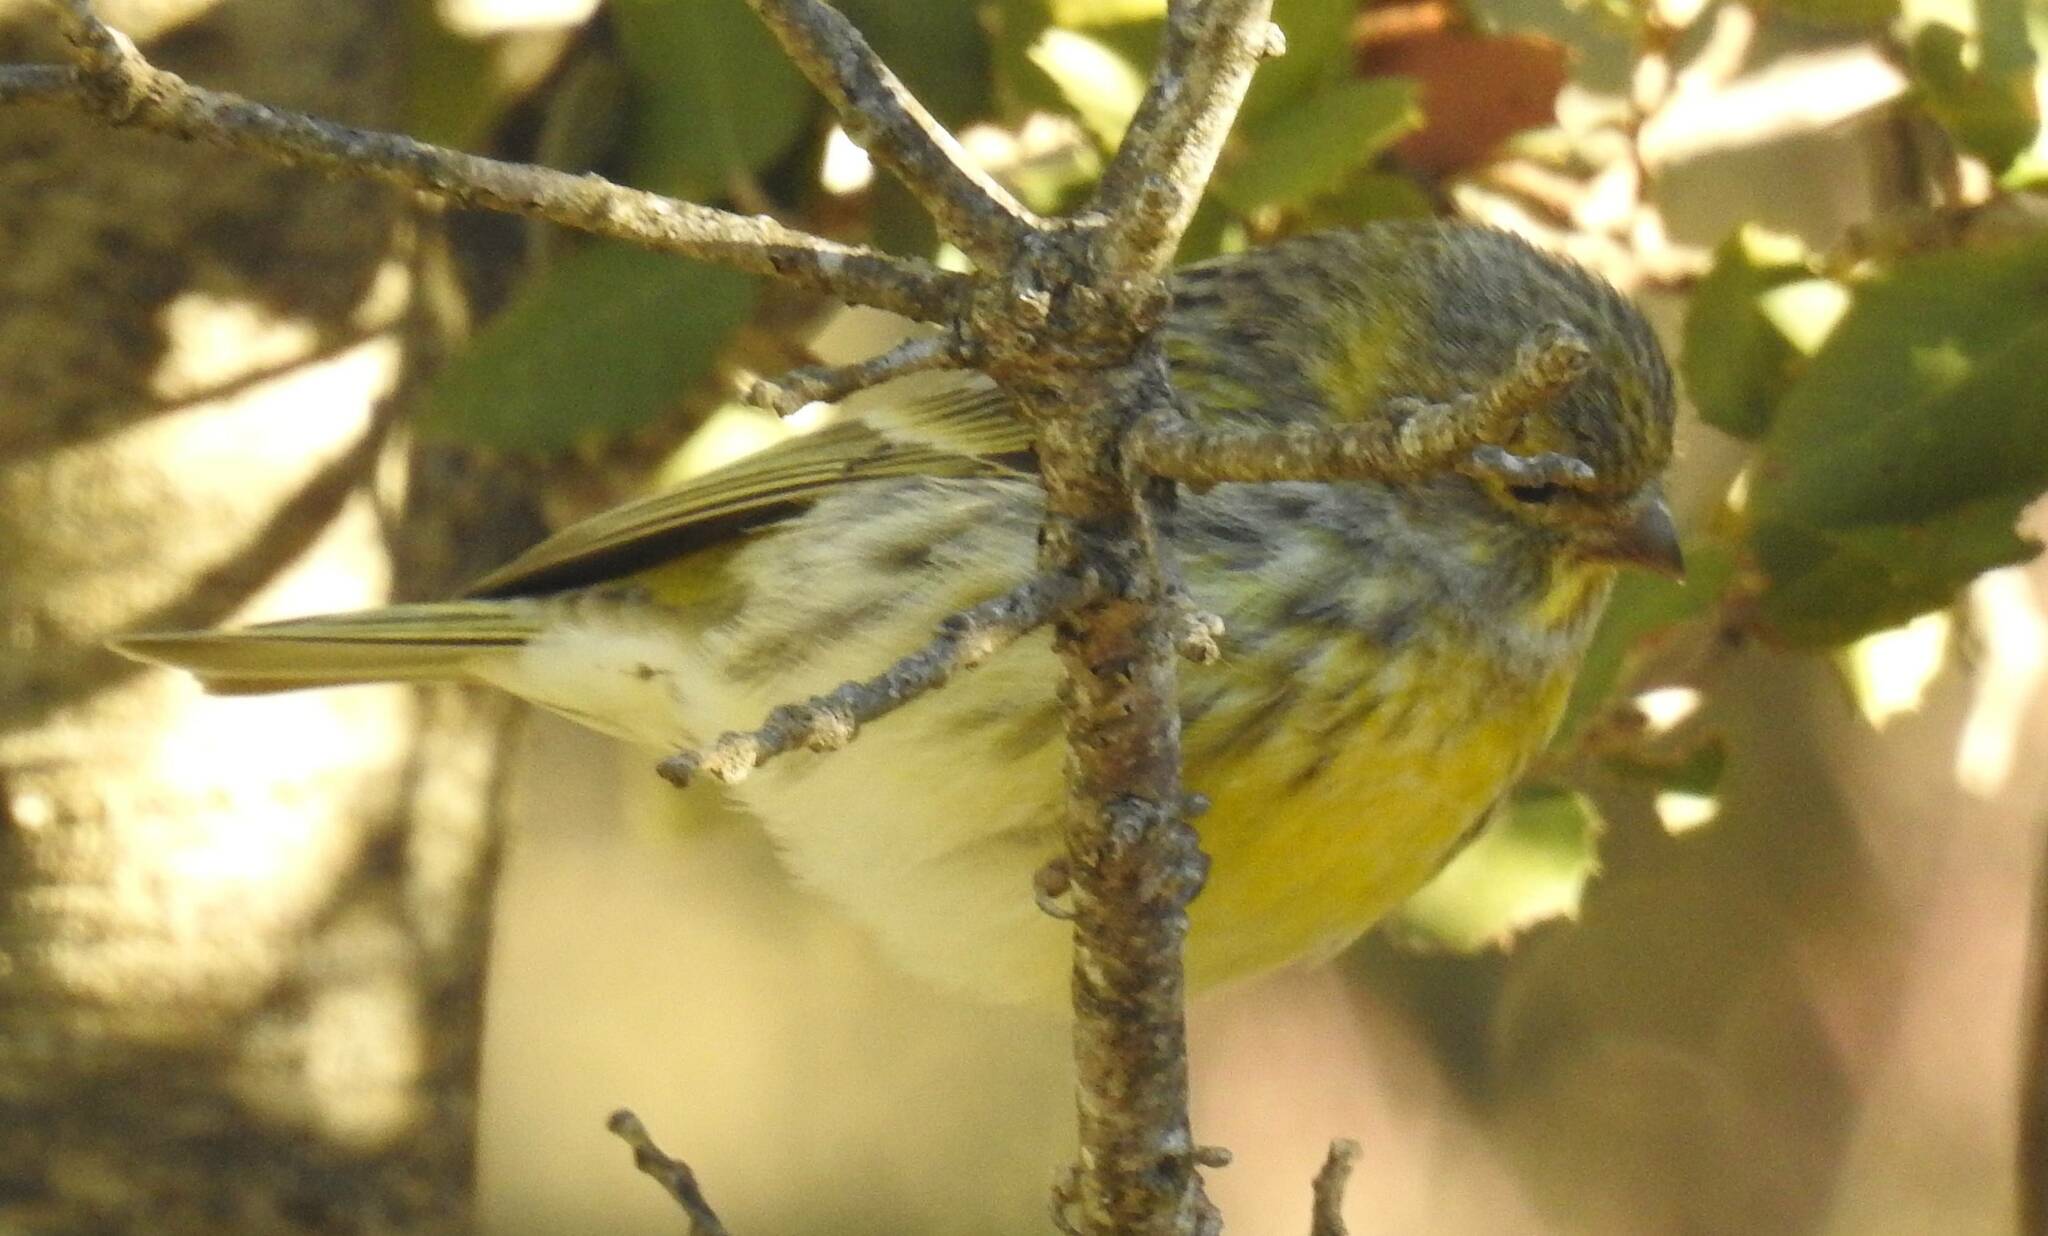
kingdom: Animalia
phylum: Chordata
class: Aves
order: Passeriformes
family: Fringillidae
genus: Serinus
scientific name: Serinus serinus
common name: European serin
